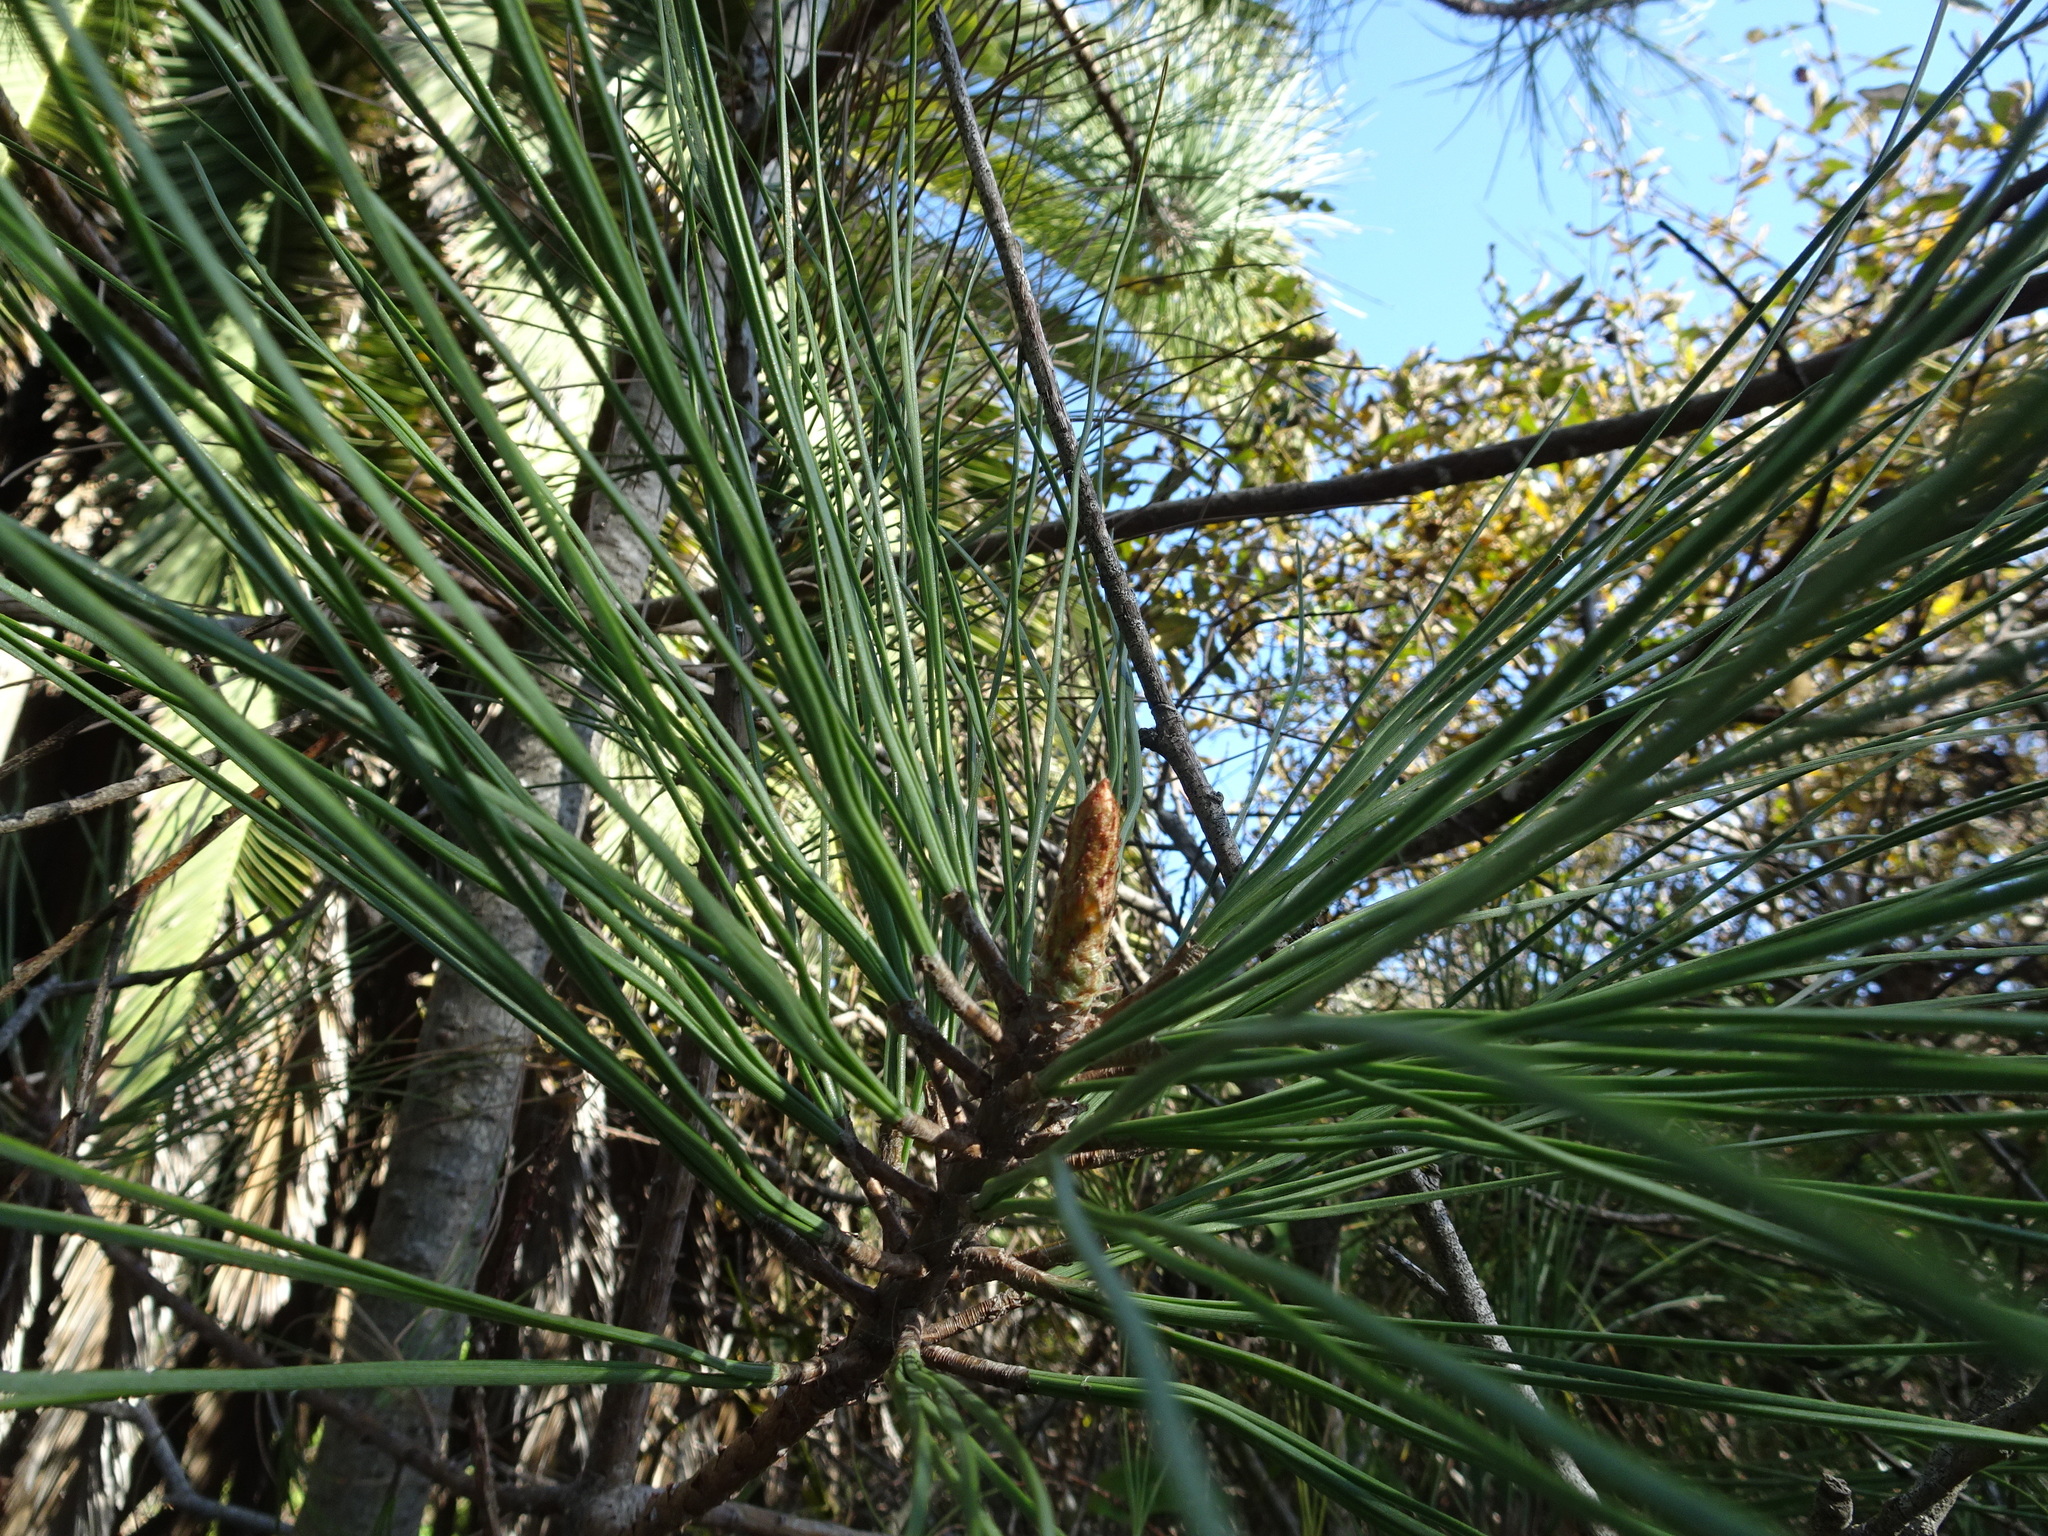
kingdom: Plantae
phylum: Tracheophyta
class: Pinopsida
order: Pinales
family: Pinaceae
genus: Pinus
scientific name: Pinus radiata
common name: Monterey pine
